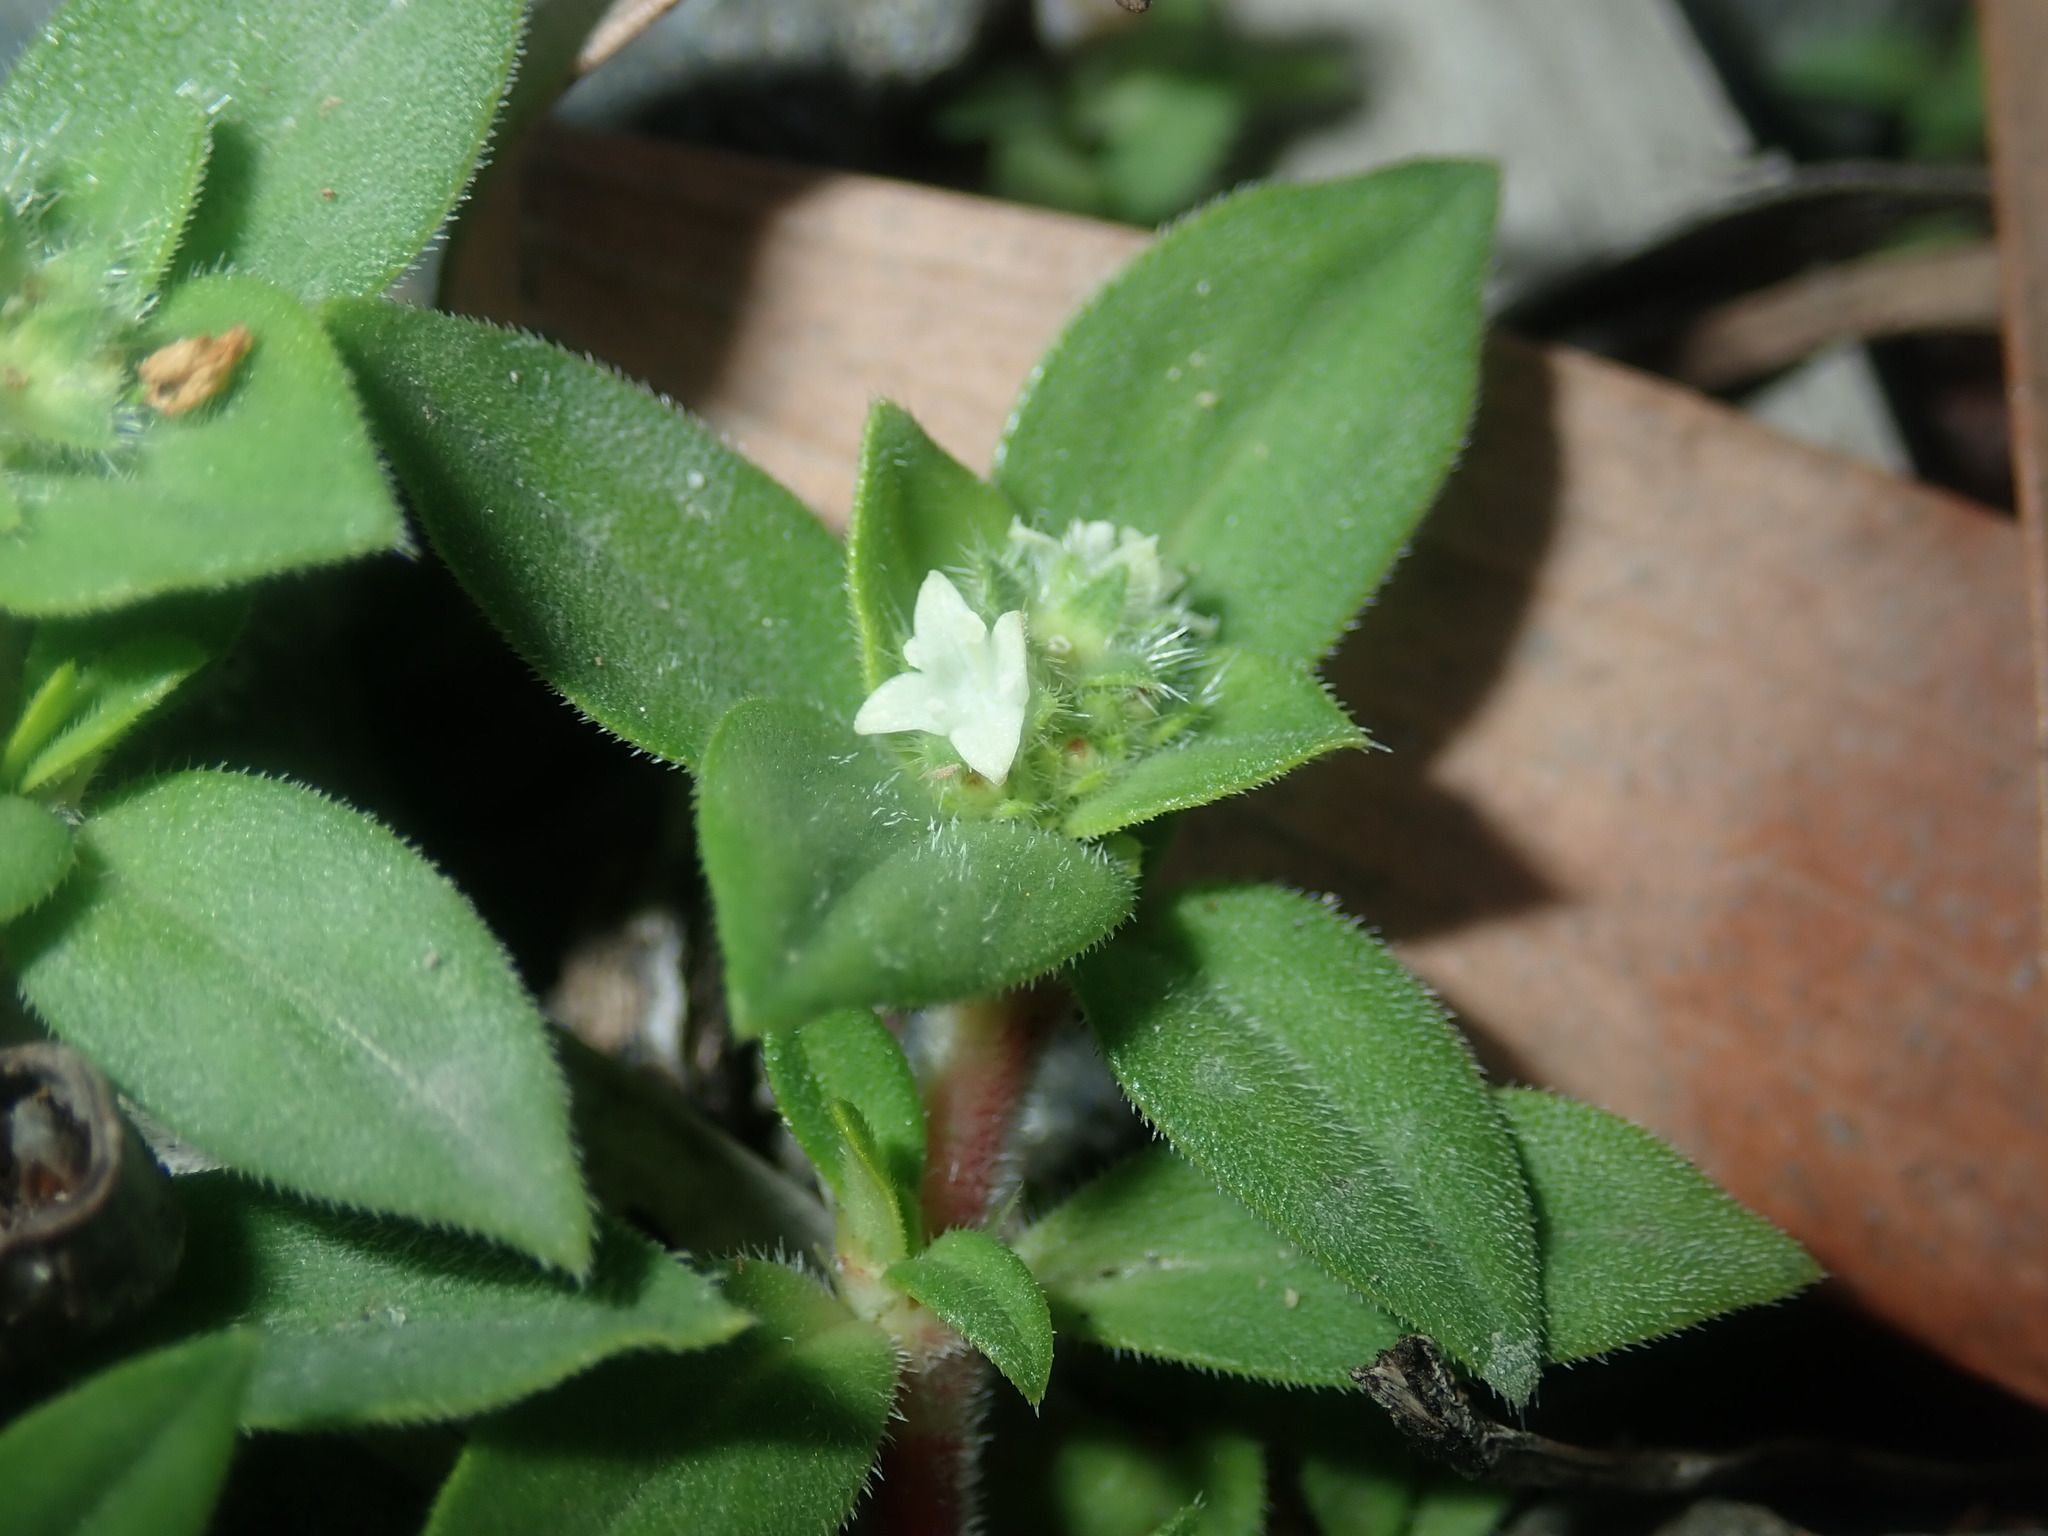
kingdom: Plantae
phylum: Tracheophyta
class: Magnoliopsida
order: Gentianales
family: Rubiaceae
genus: Richardia
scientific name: Richardia humistrata
